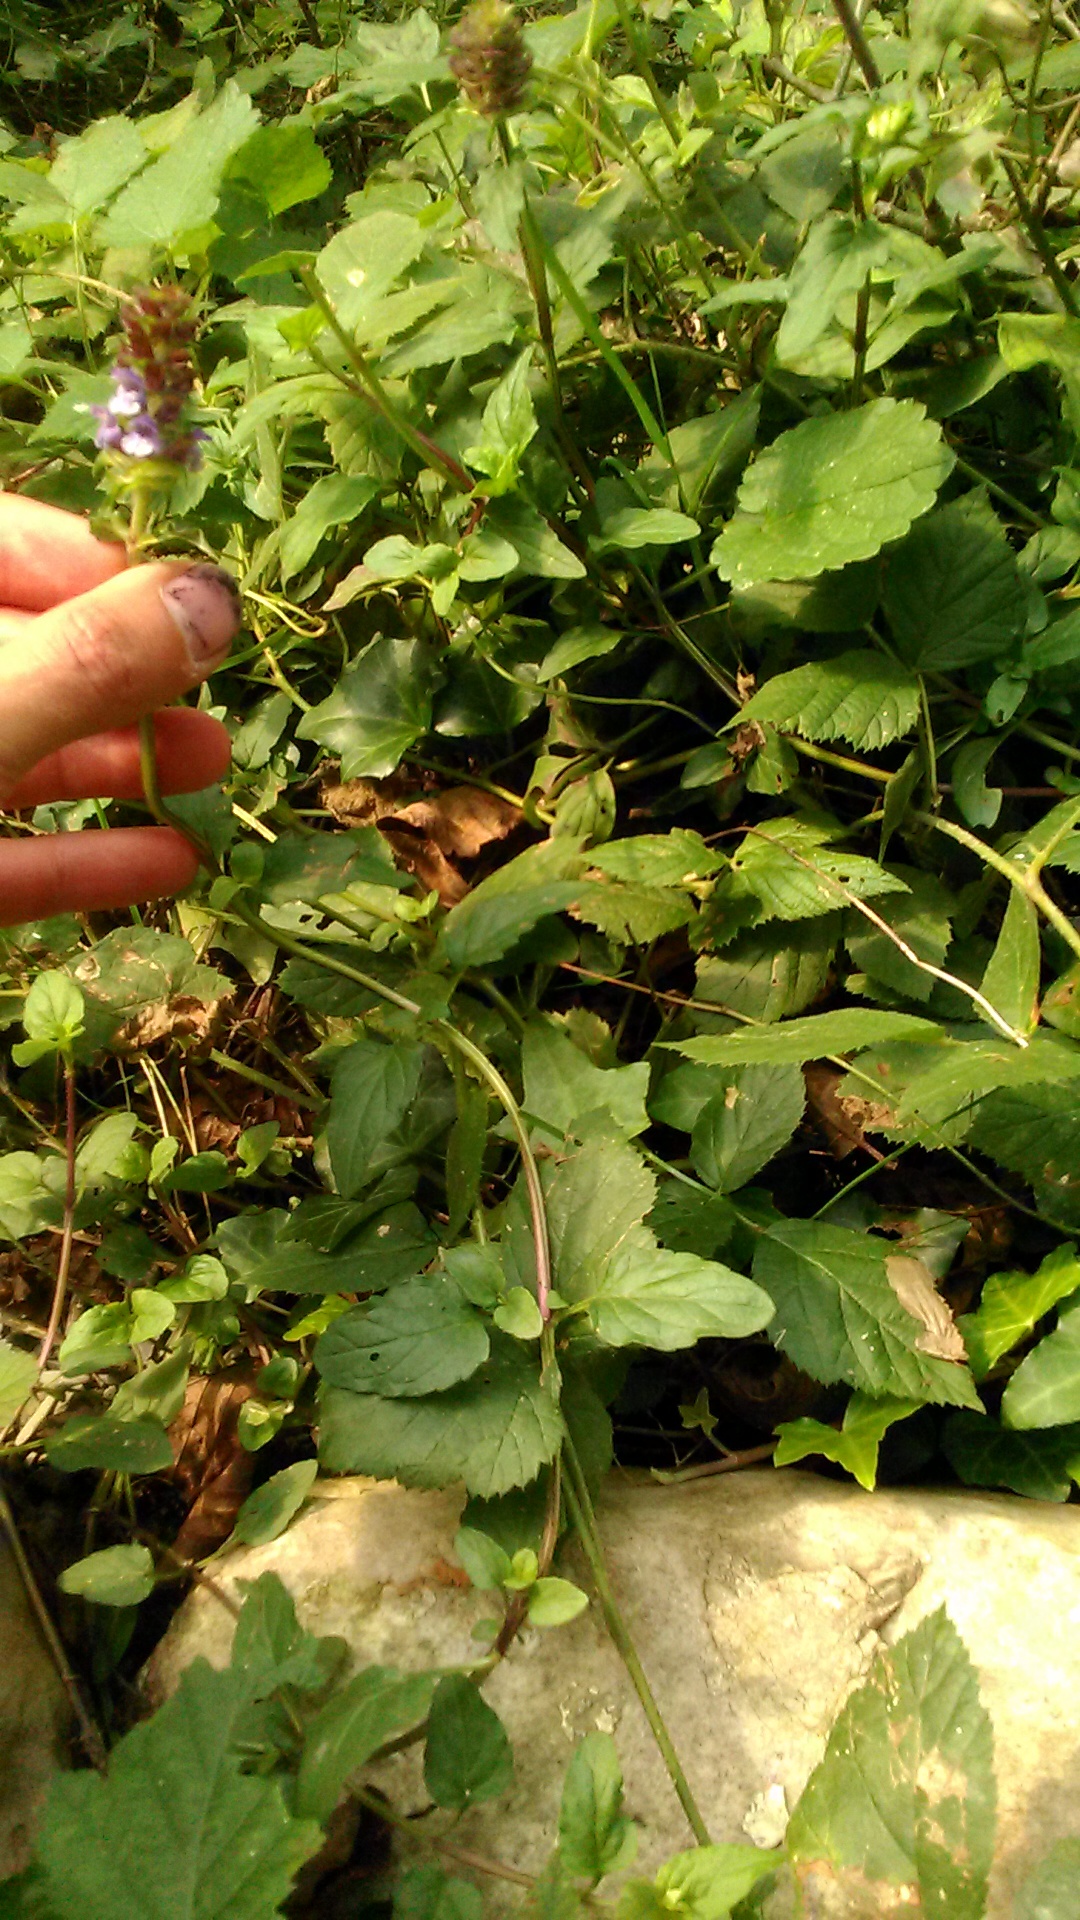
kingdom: Plantae
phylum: Tracheophyta
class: Magnoliopsida
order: Lamiales
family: Lamiaceae
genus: Prunella
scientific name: Prunella vulgaris
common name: Heal-all
